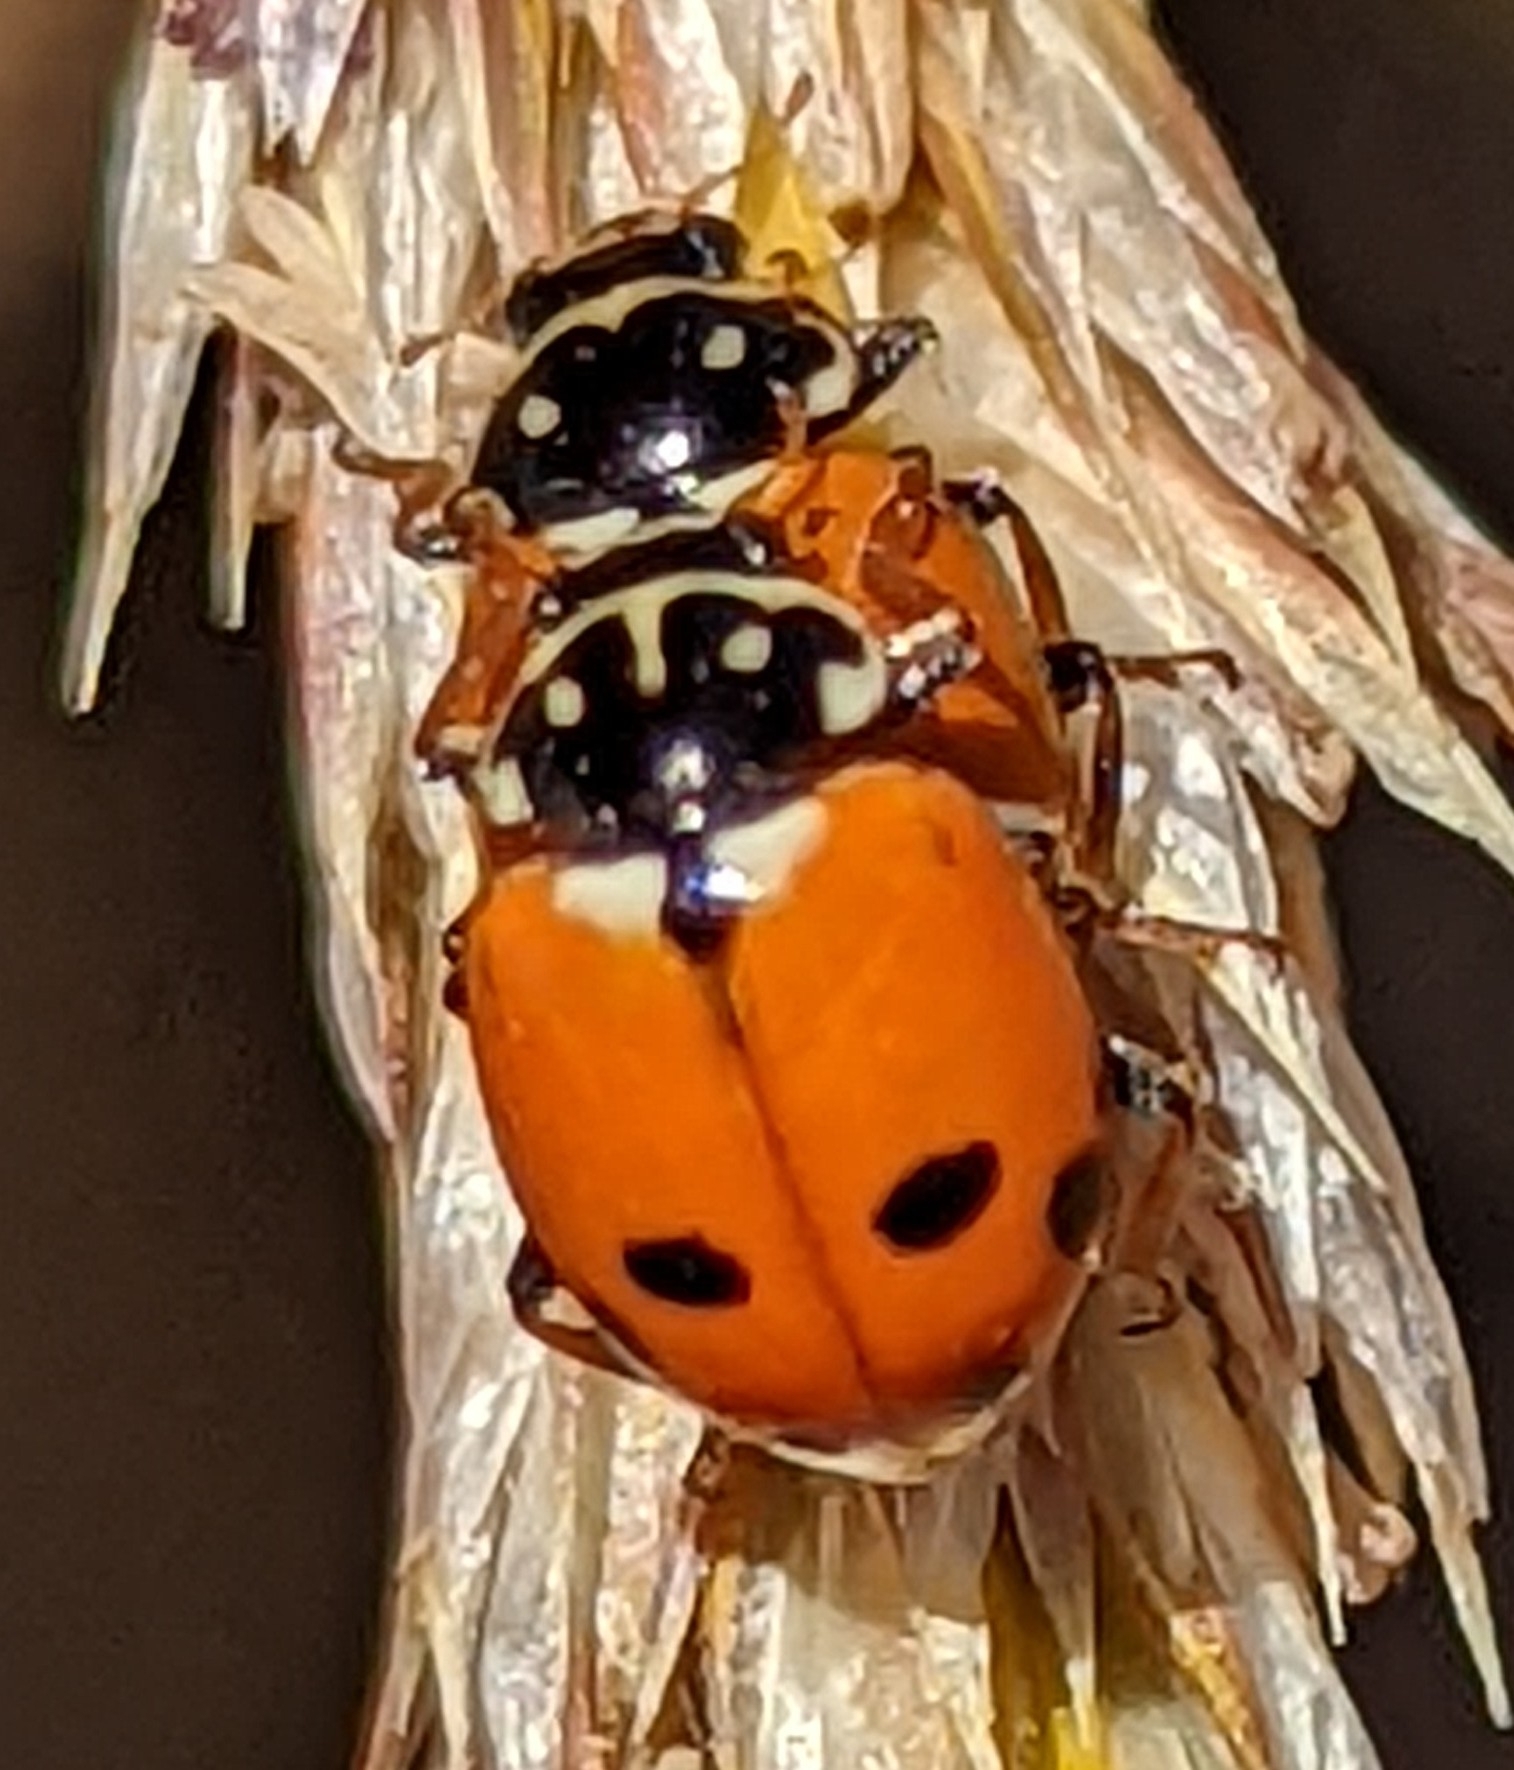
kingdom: Animalia
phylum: Arthropoda
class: Insecta
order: Coleoptera
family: Coccinellidae
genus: Hippodamia
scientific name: Hippodamia variegata
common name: Ladybird beetle
